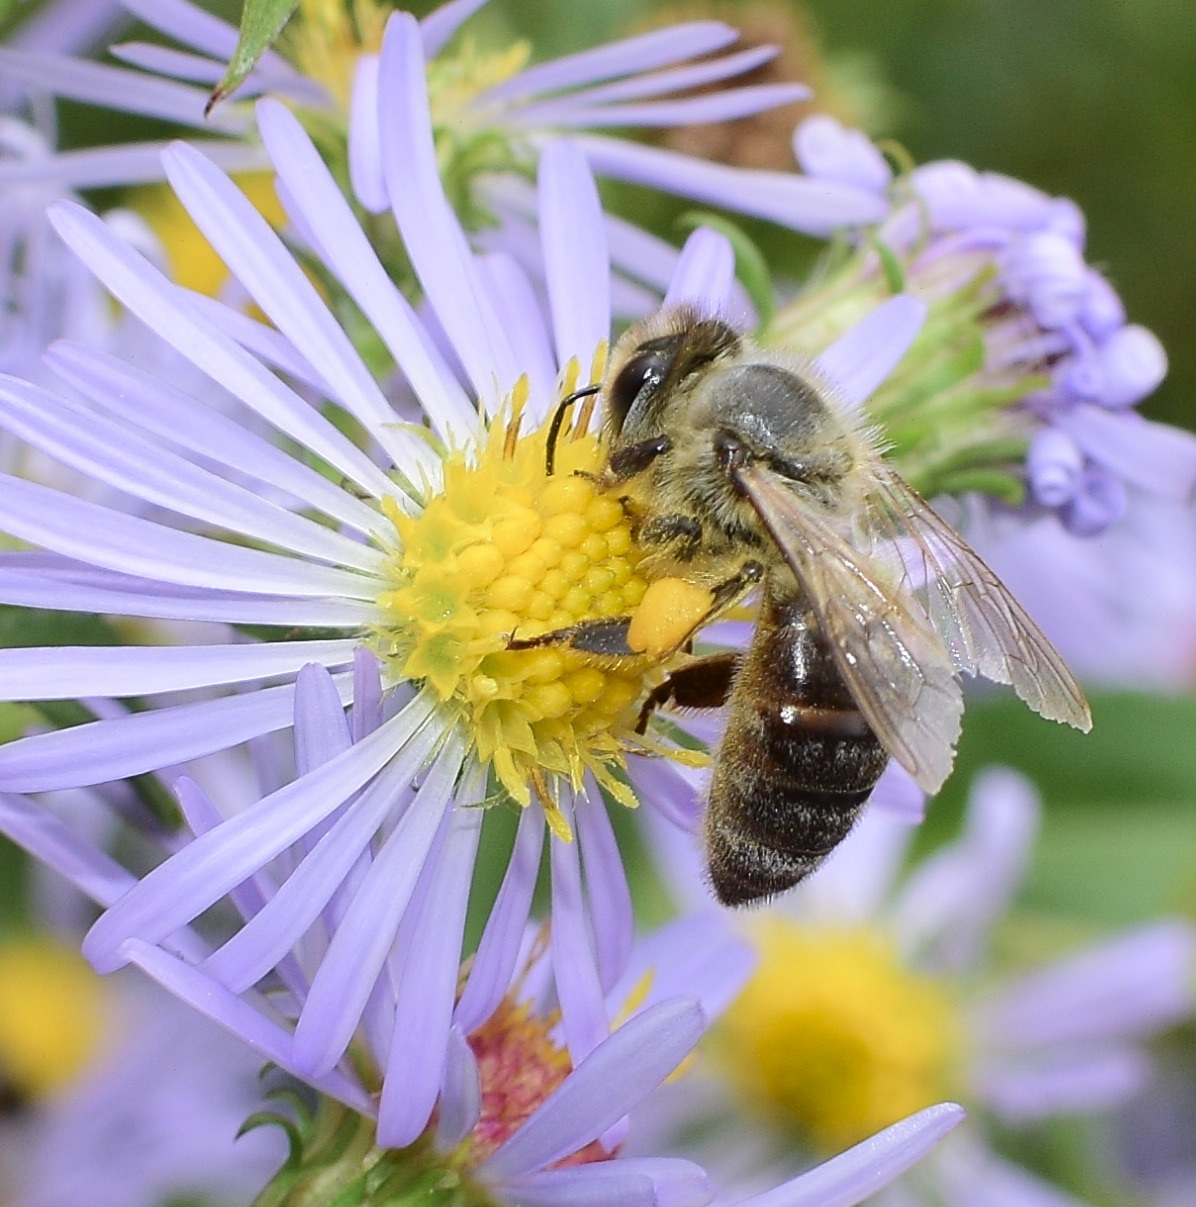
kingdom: Animalia
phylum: Arthropoda
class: Insecta
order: Hymenoptera
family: Apidae
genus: Apis
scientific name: Apis mellifera
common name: Honey bee
